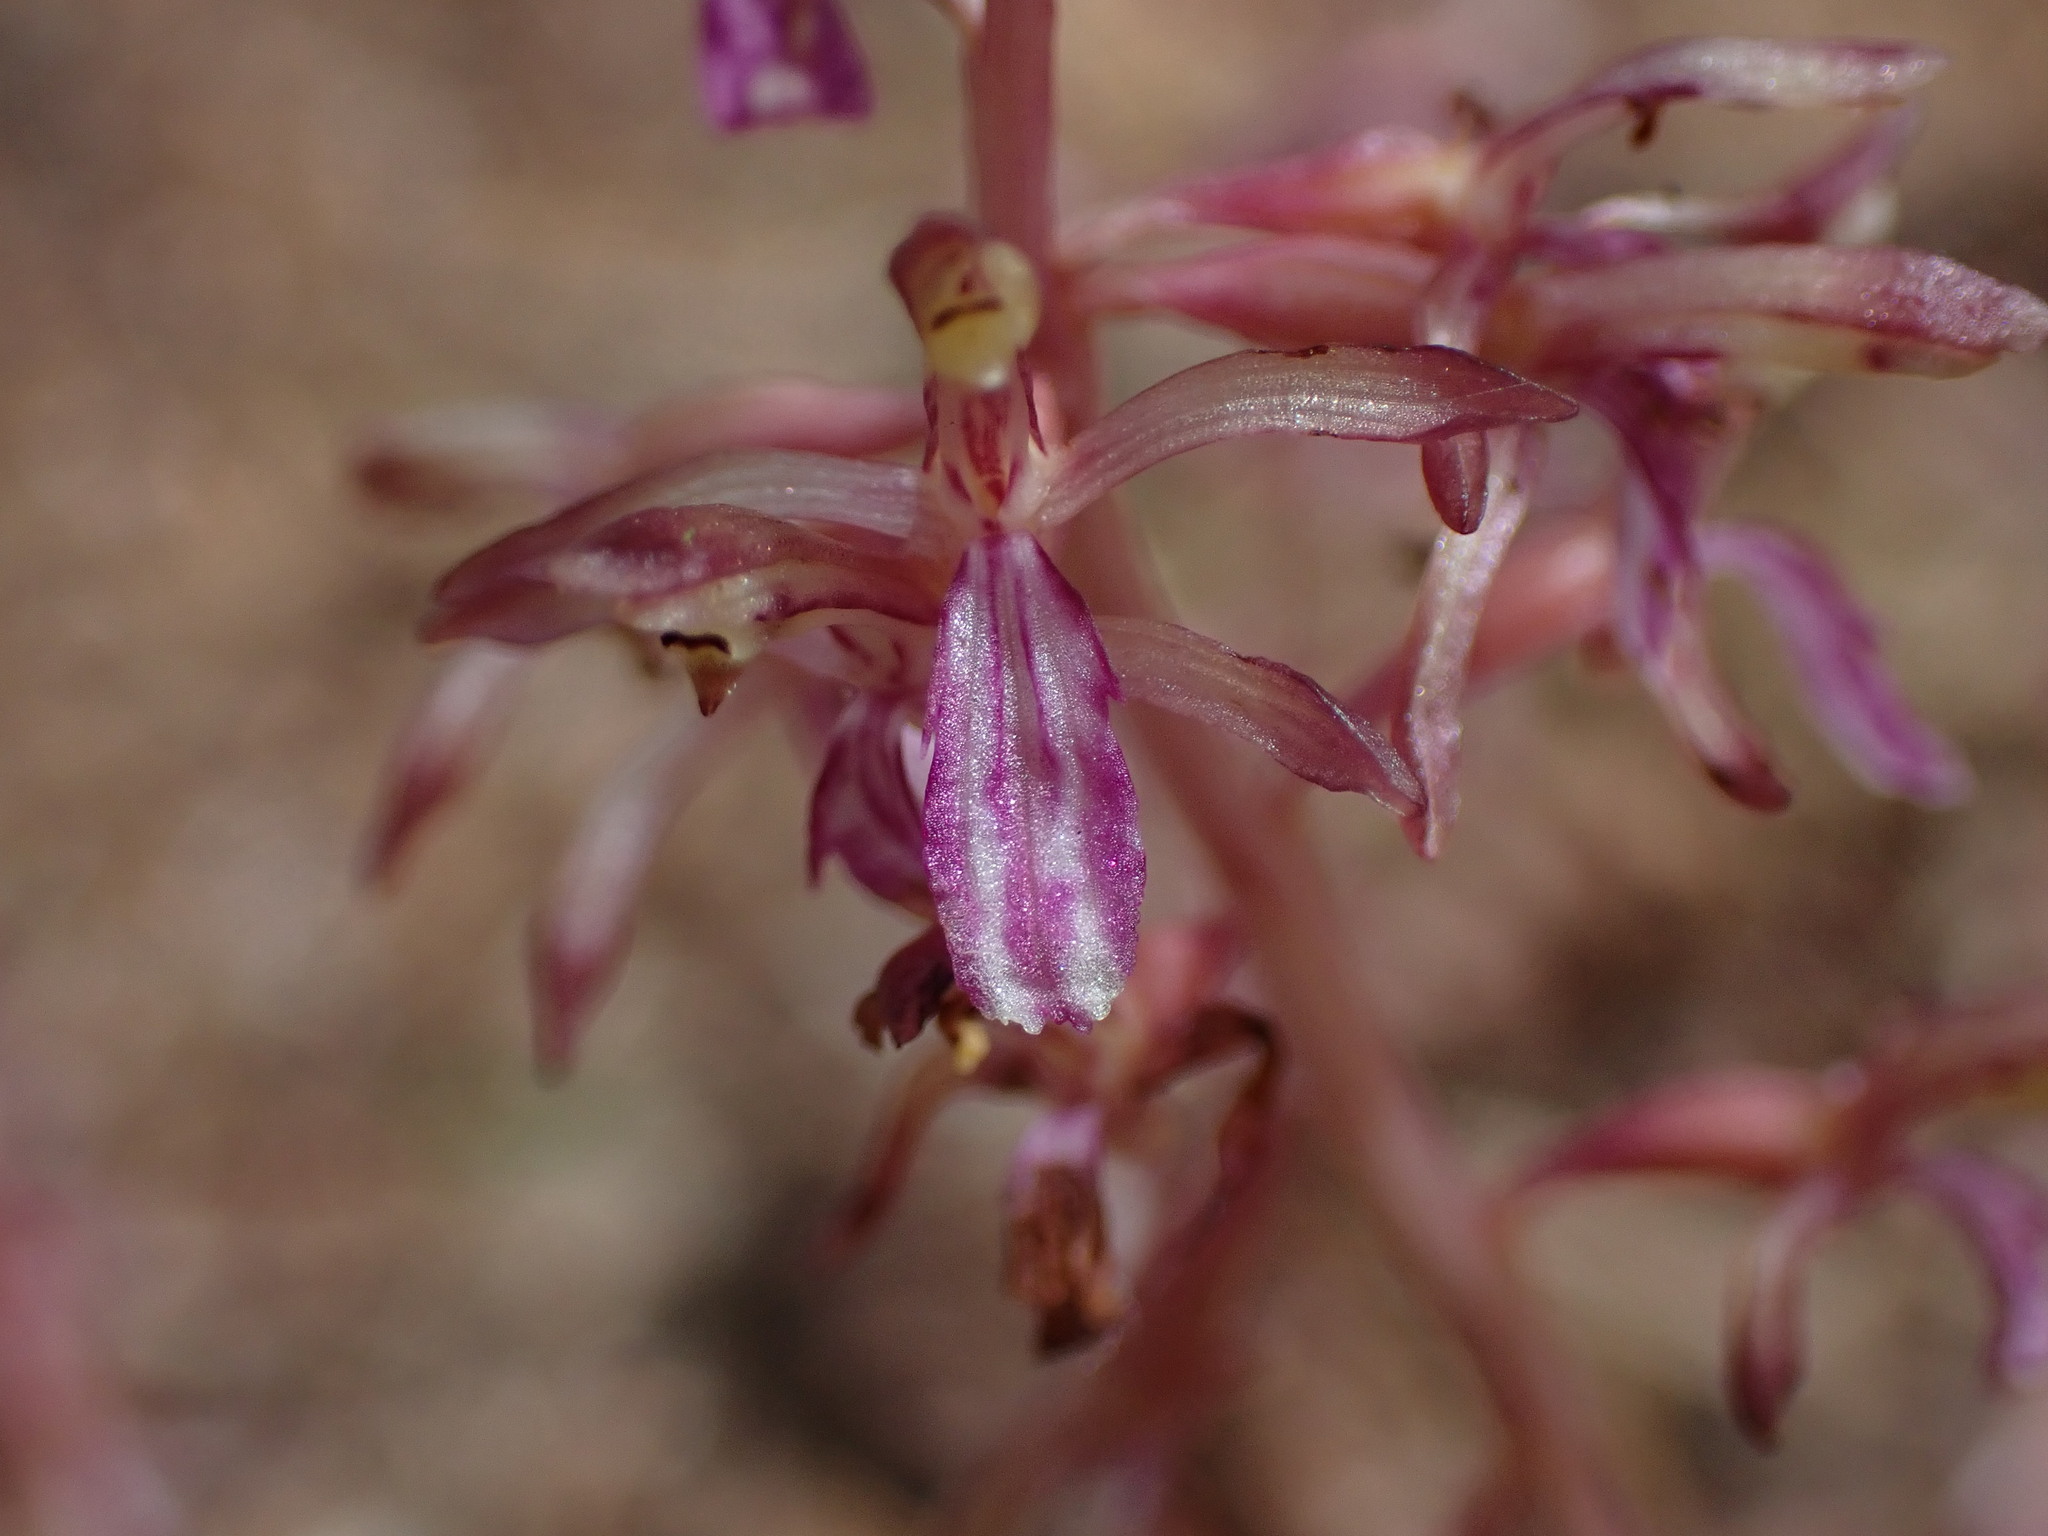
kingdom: Plantae
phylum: Tracheophyta
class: Liliopsida
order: Asparagales
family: Orchidaceae
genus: Corallorhiza
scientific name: Corallorhiza mertensiana
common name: Pacific coralroot
